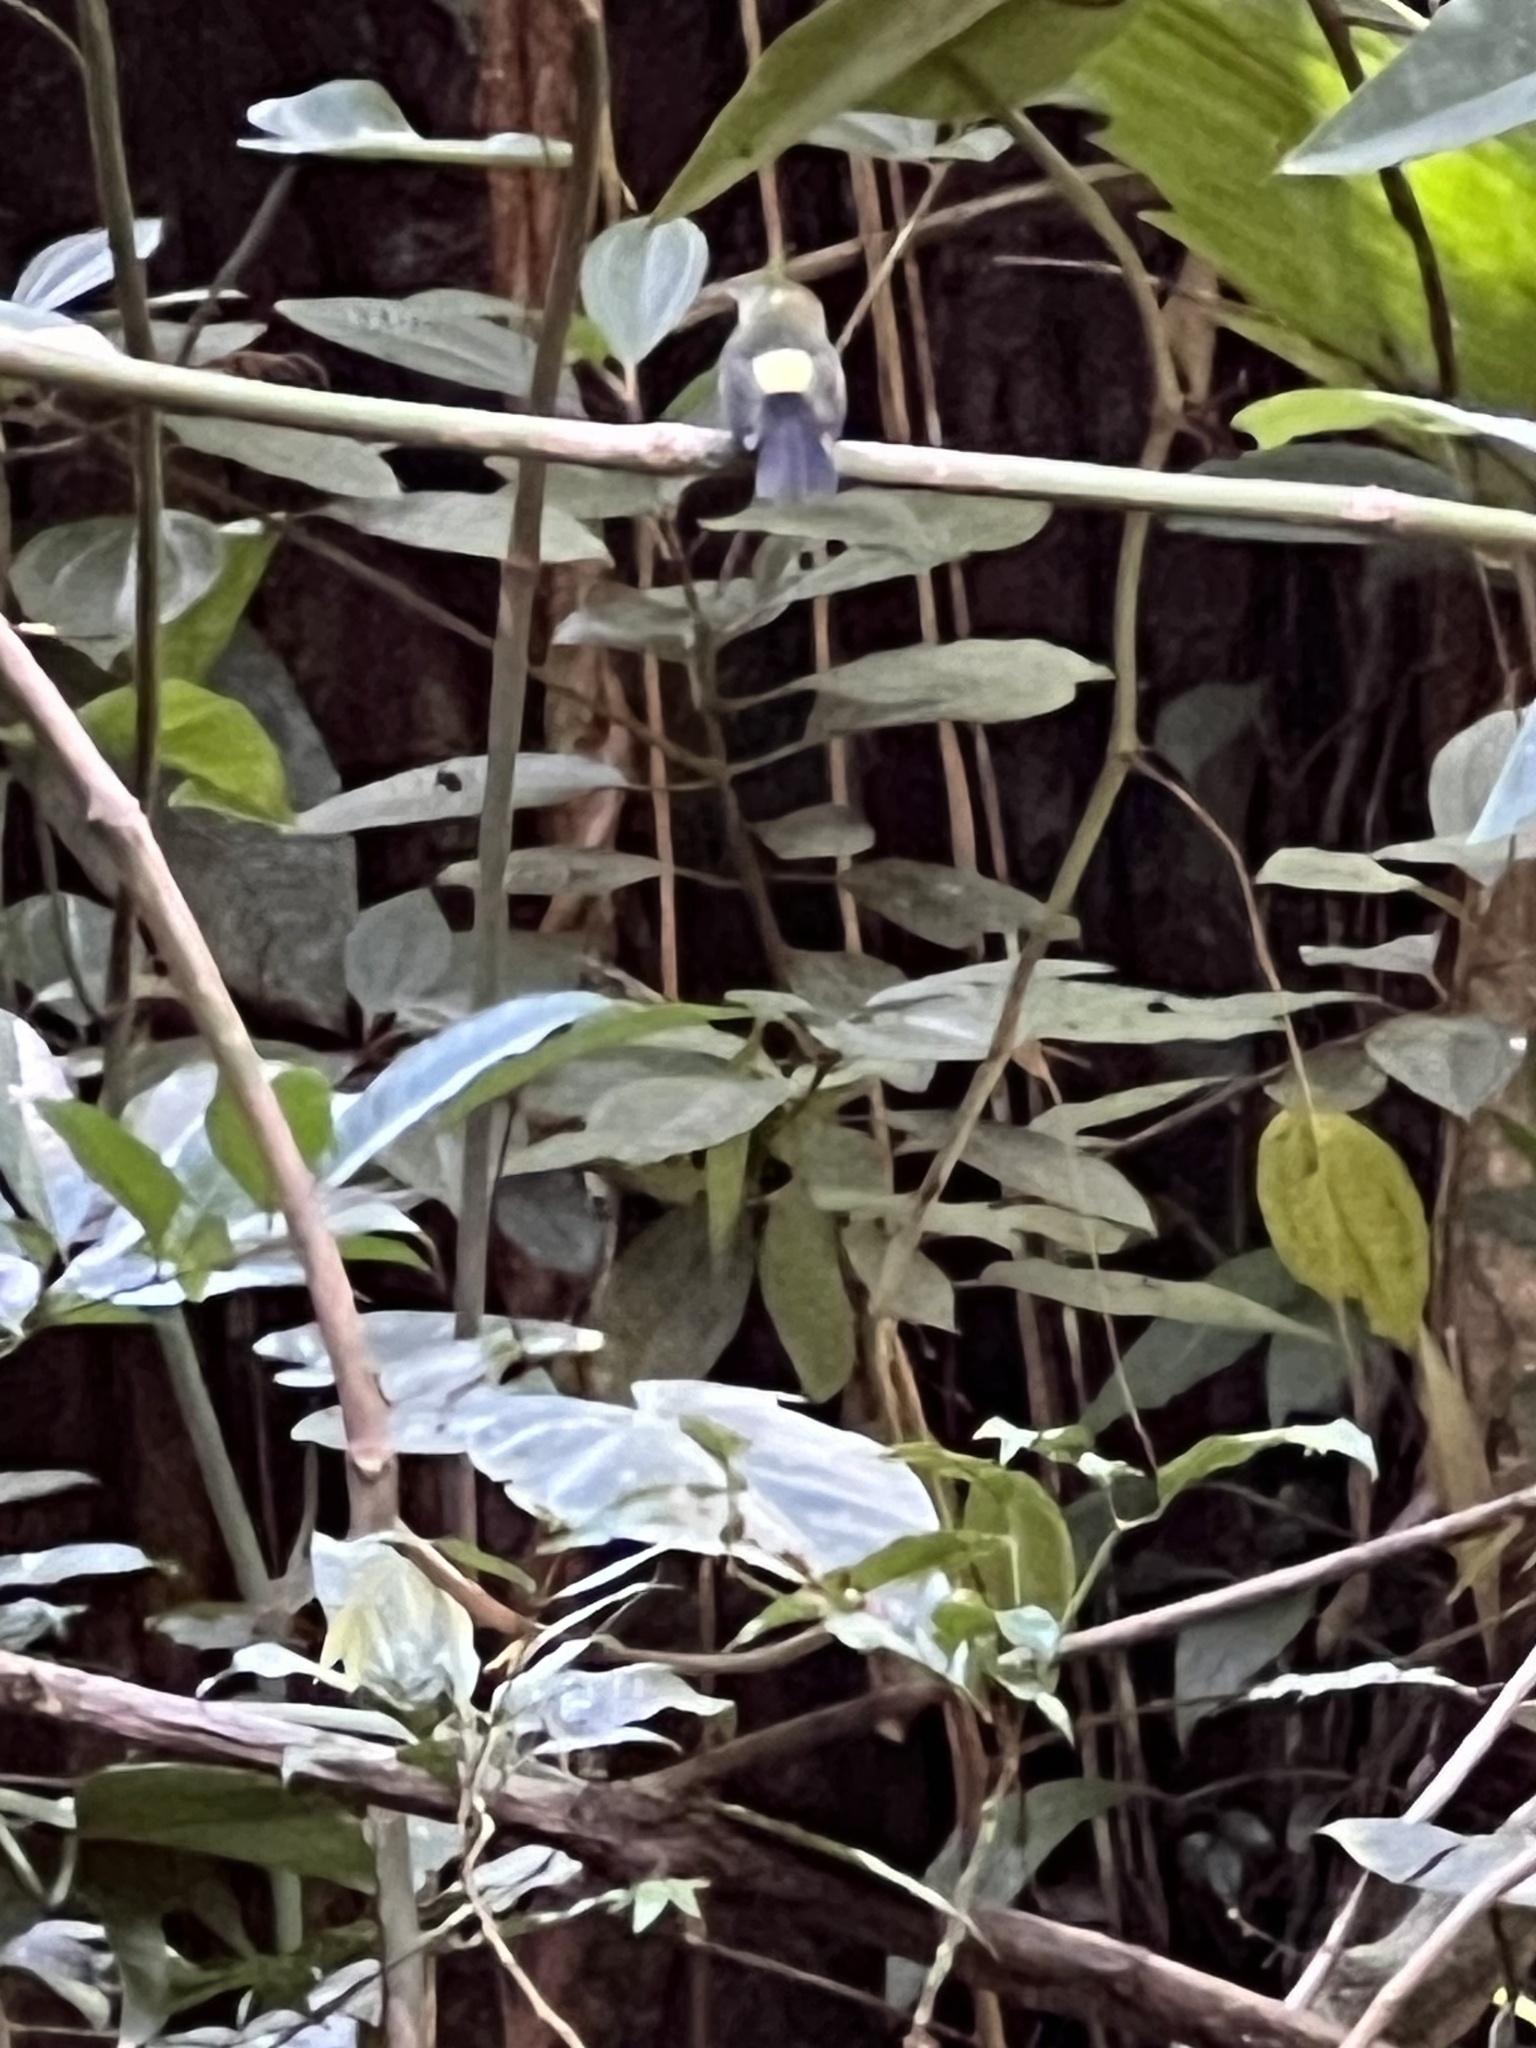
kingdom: Animalia
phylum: Chordata
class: Aves
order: Passeriformes
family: Tyrannidae
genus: Myiobius
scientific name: Myiobius barbatus
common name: Whiskered myiobius
